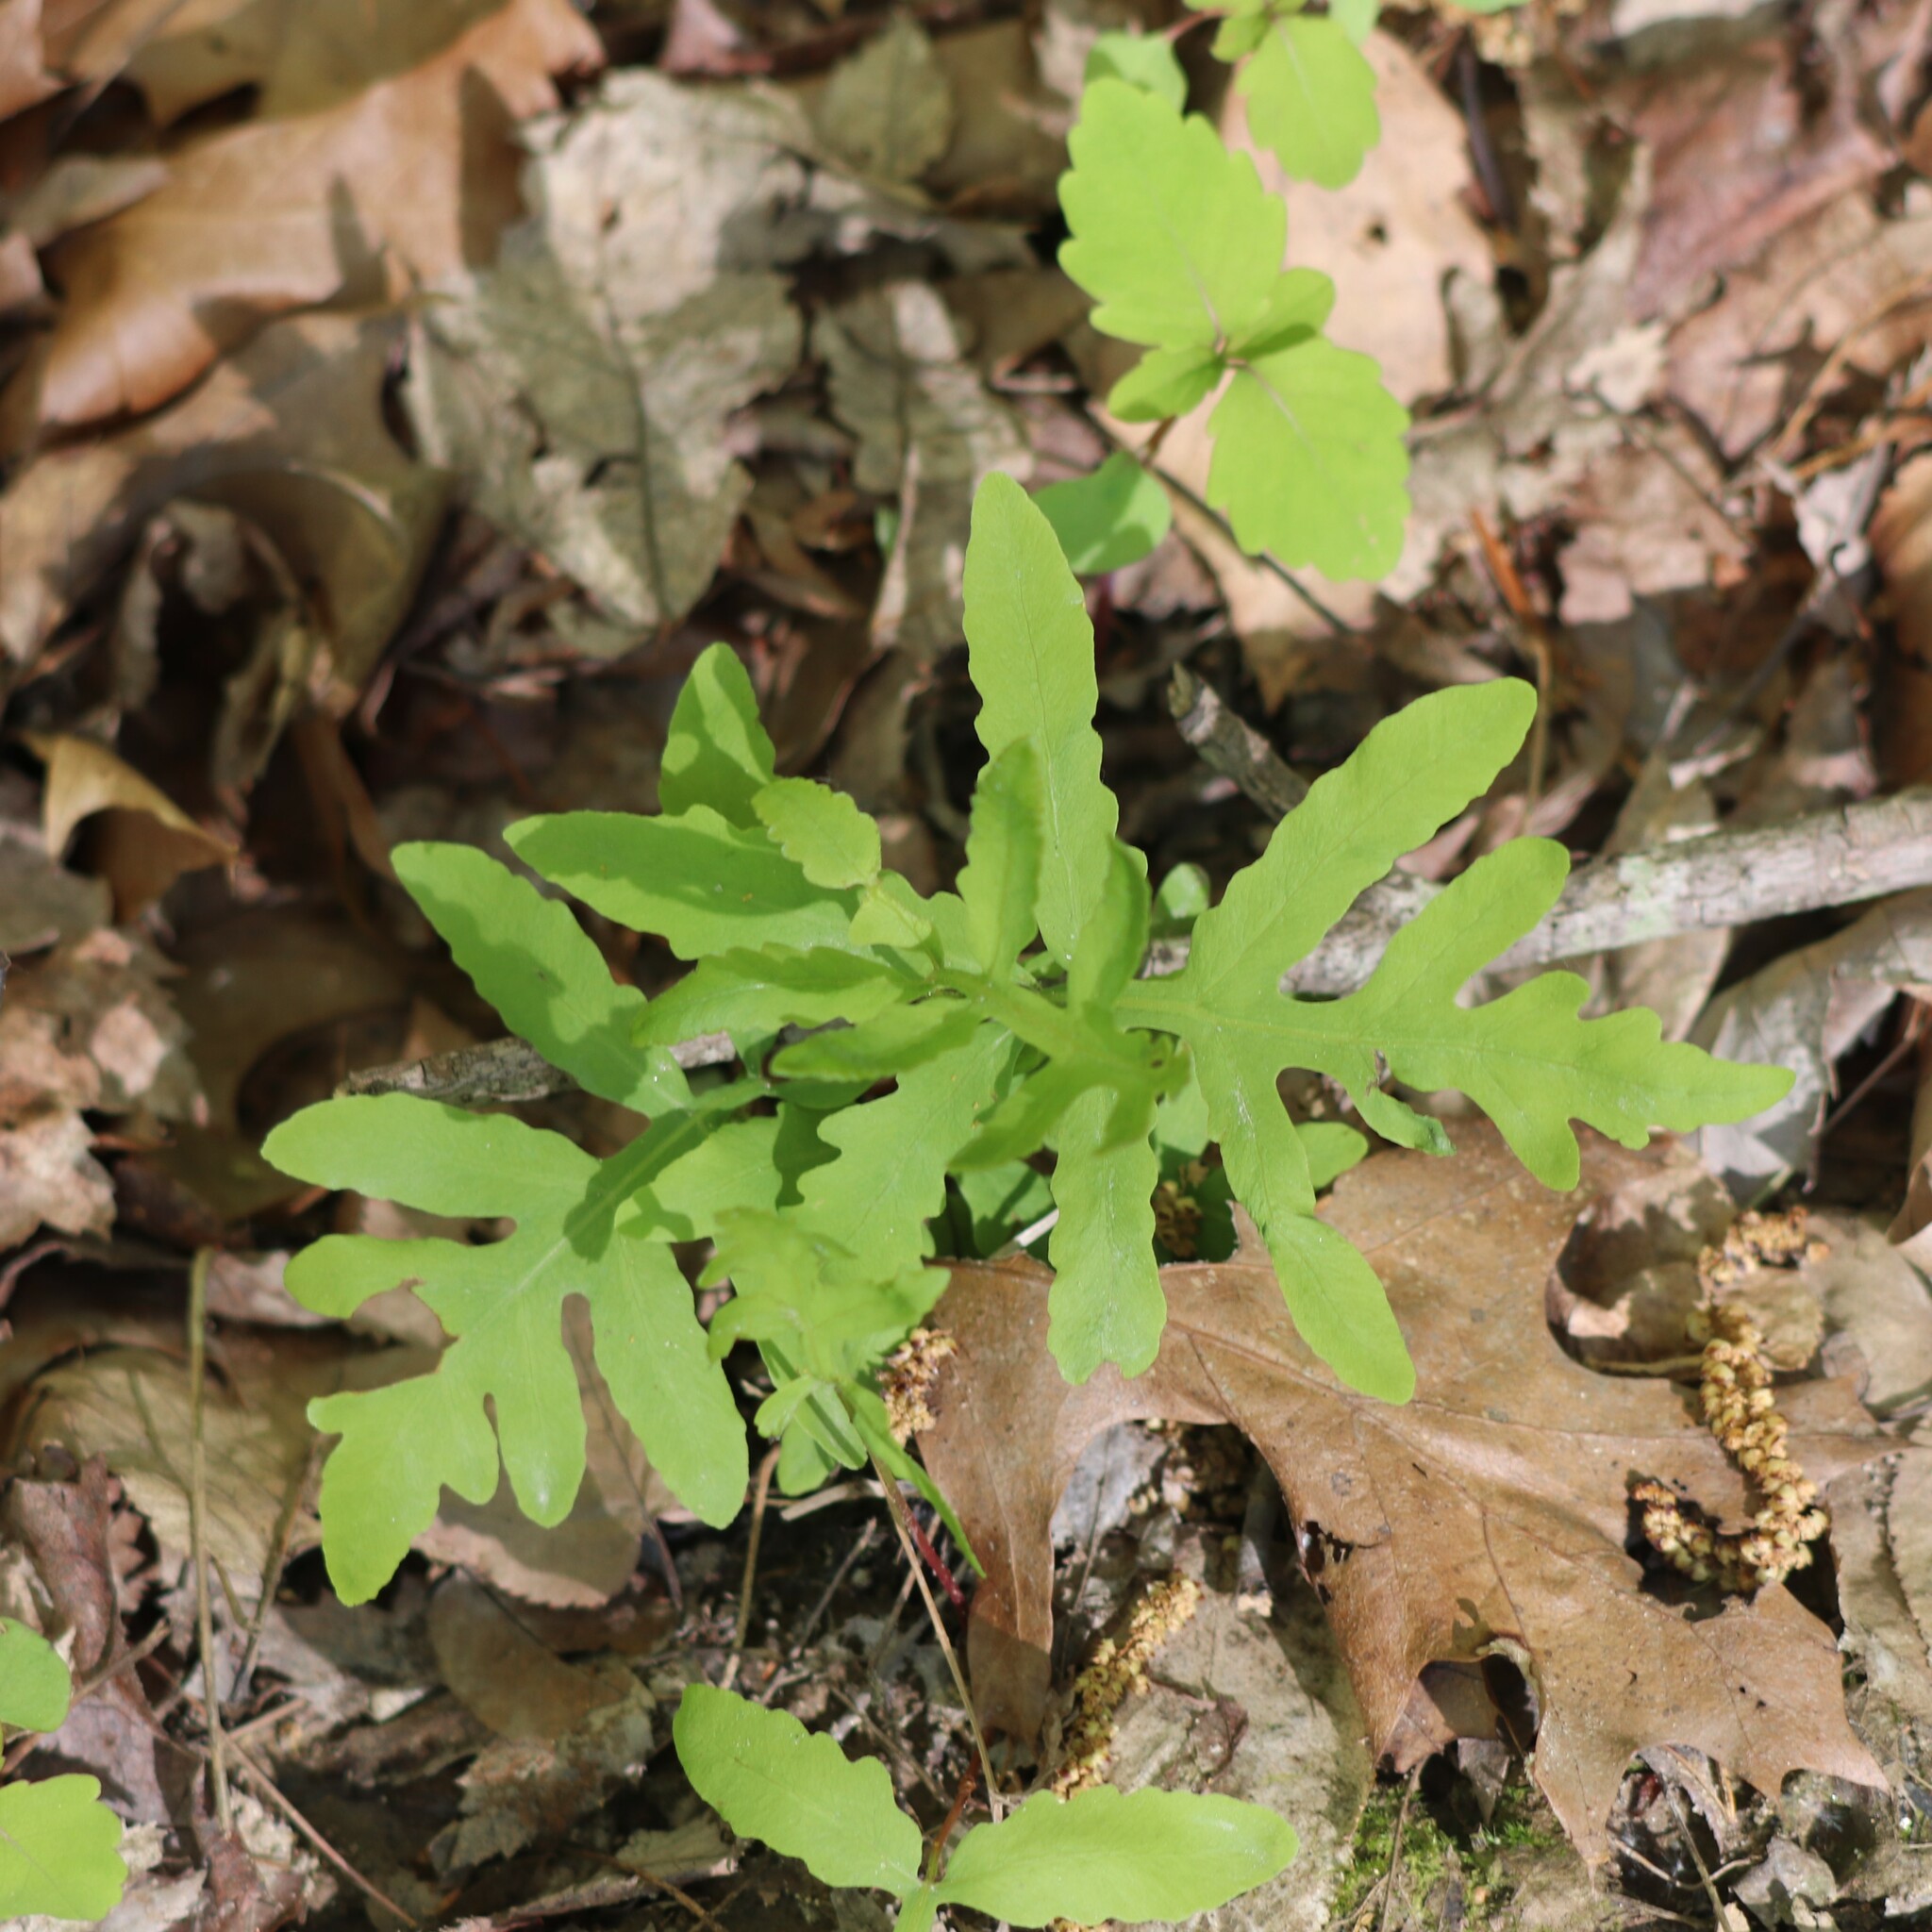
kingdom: Plantae
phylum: Tracheophyta
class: Polypodiopsida
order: Polypodiales
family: Onocleaceae
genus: Onoclea
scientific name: Onoclea sensibilis
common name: Sensitive fern
